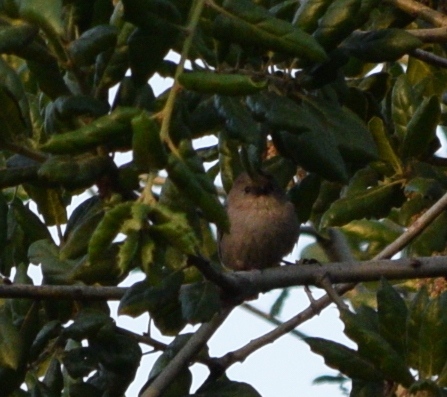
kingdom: Animalia
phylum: Chordata
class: Aves
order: Passeriformes
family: Aegithalidae
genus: Psaltriparus
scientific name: Psaltriparus minimus
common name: American bushtit
